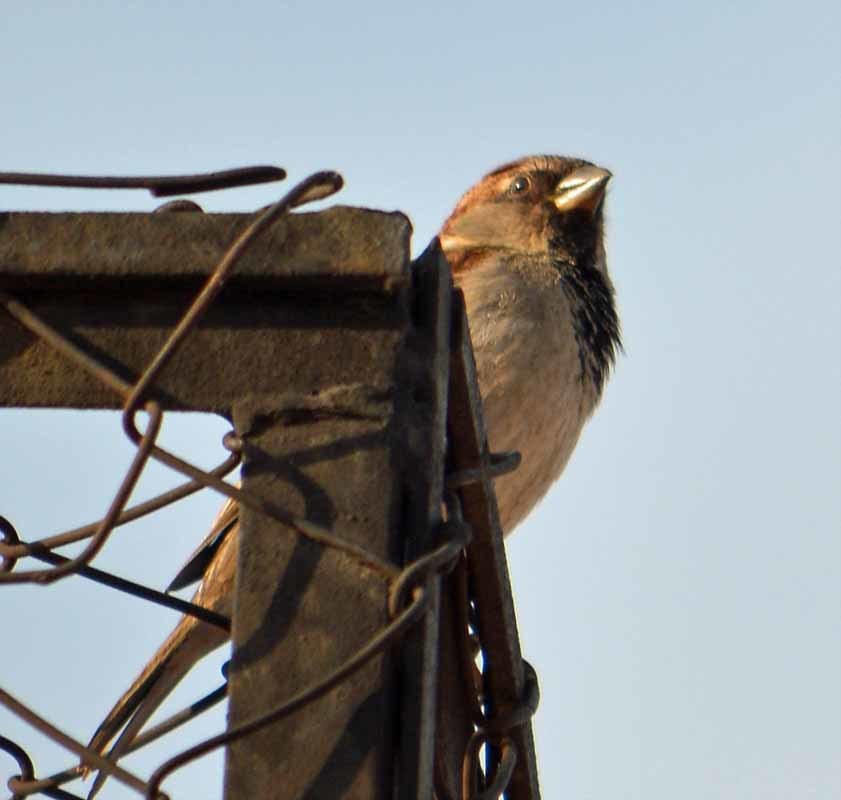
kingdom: Animalia
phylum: Chordata
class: Aves
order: Passeriformes
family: Passeridae
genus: Passer
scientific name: Passer domesticus
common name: House sparrow
